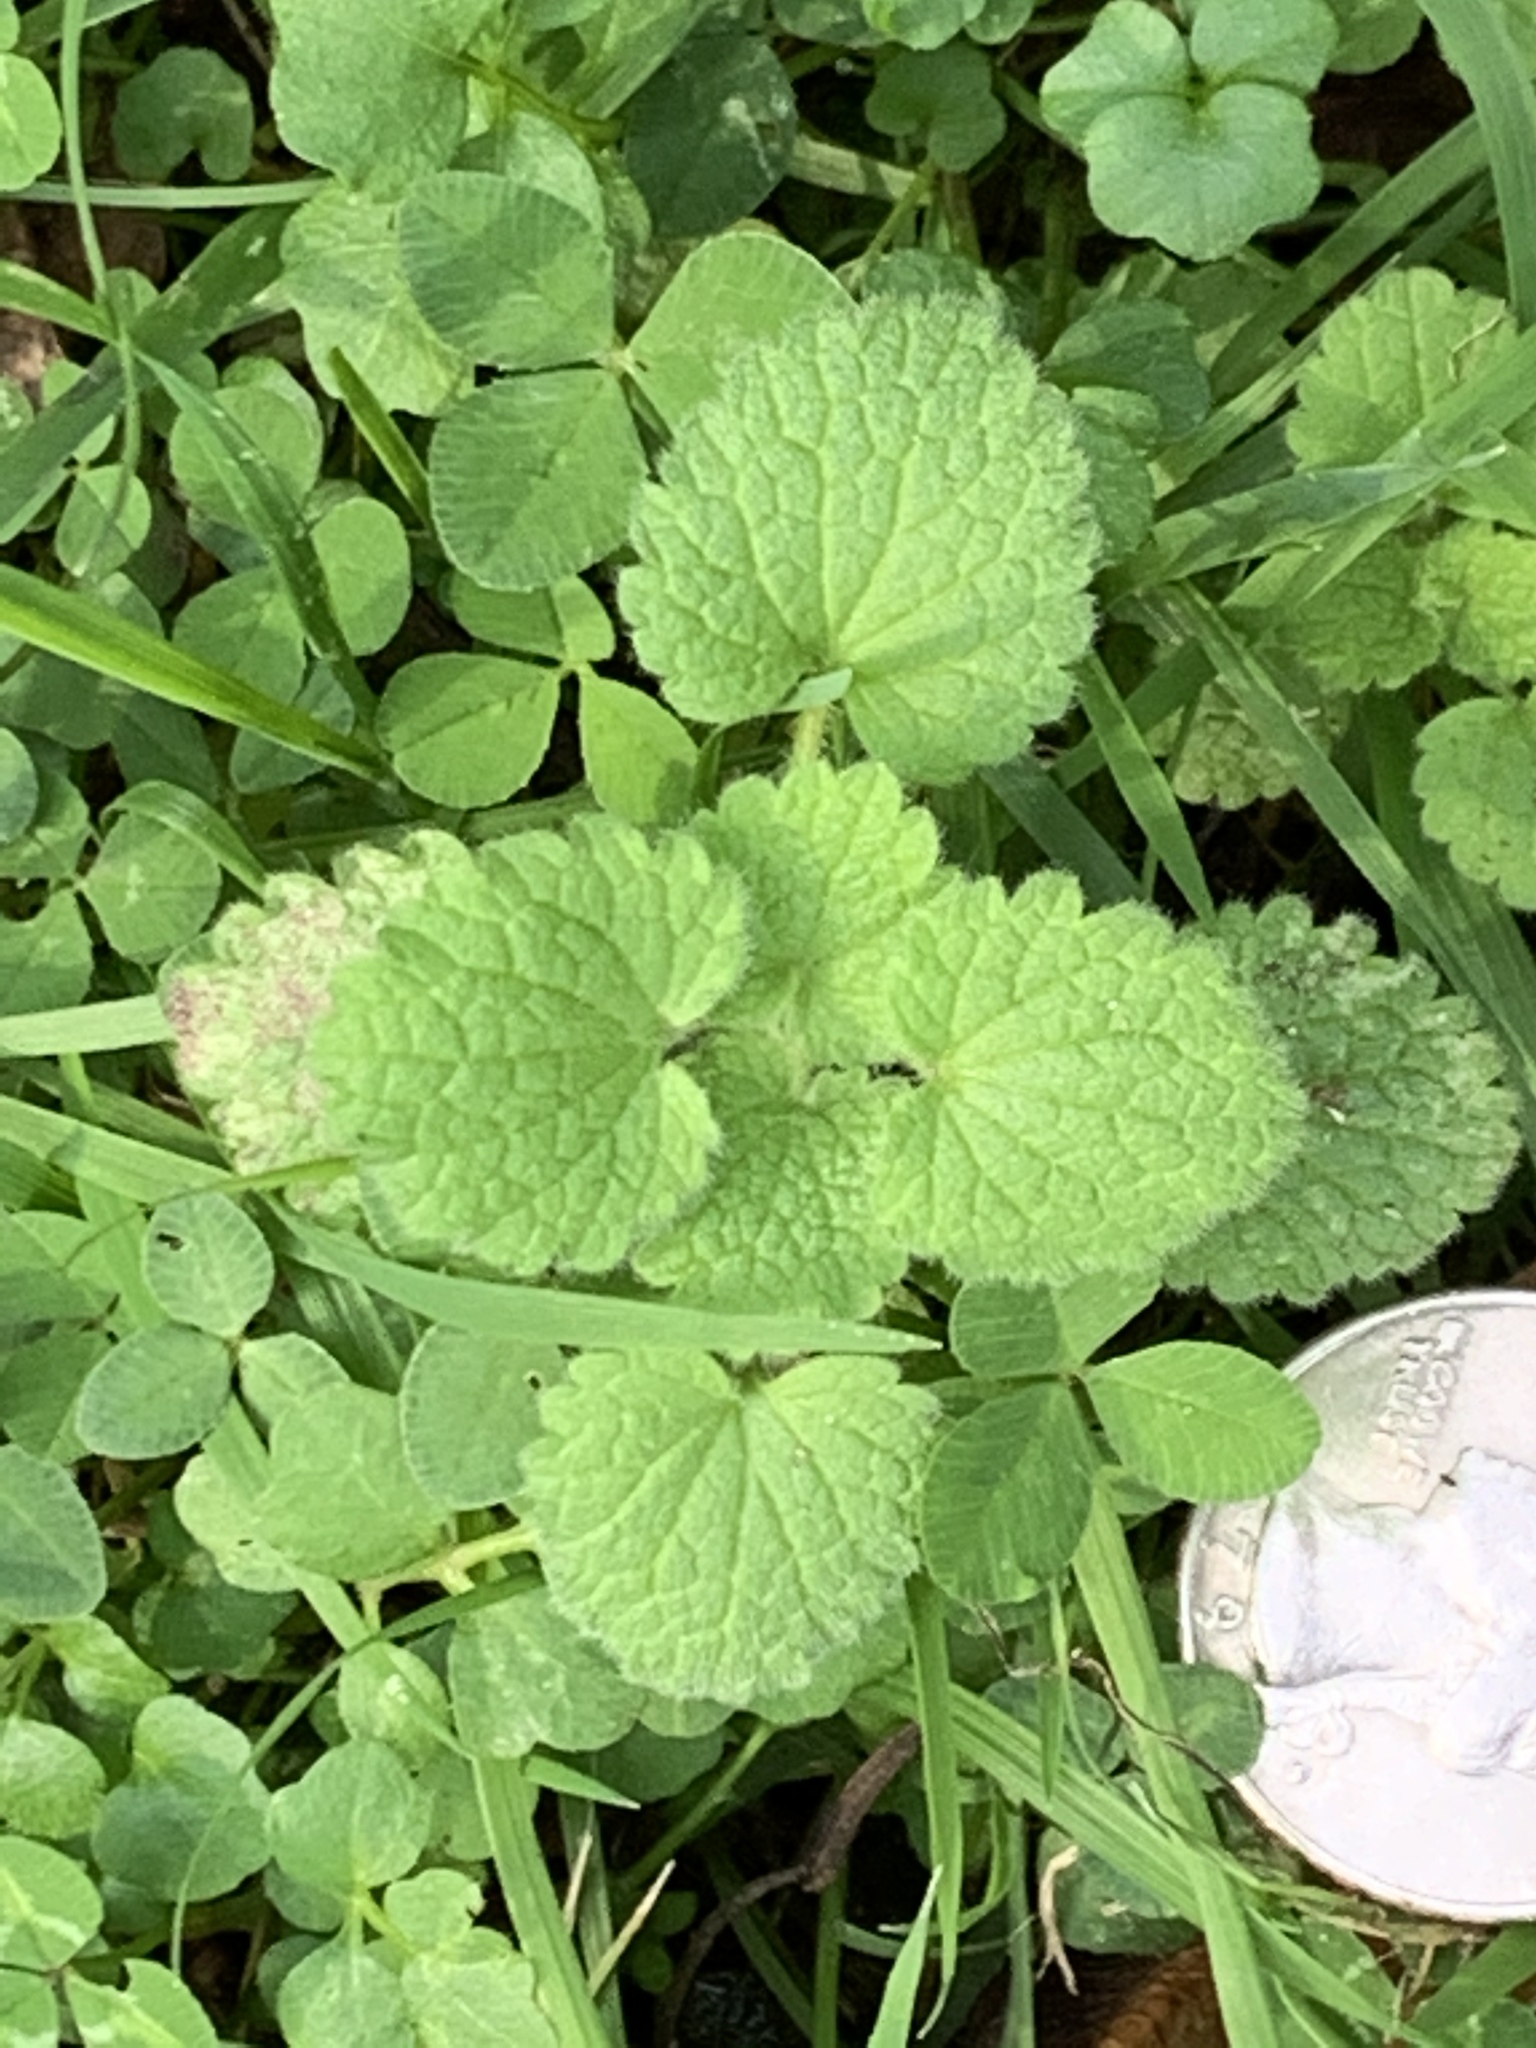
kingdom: Plantae
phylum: Tracheophyta
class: Magnoliopsida
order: Lamiales
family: Lamiaceae
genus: Lamium
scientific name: Lamium purpureum
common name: Red dead-nettle
